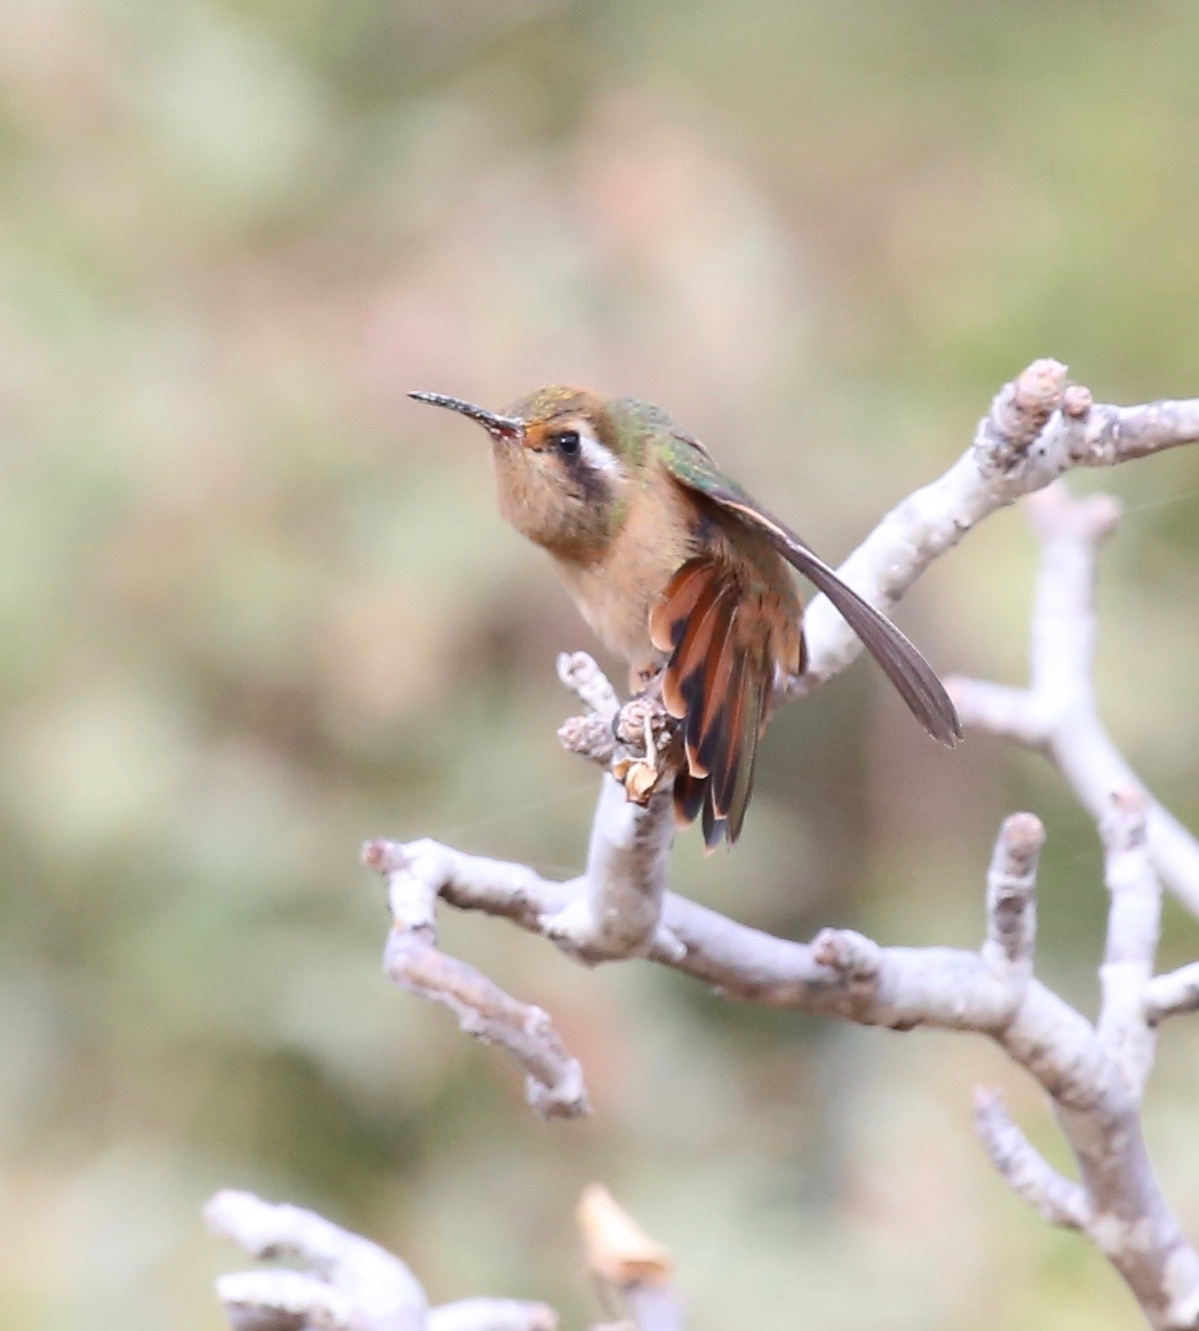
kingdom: Animalia
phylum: Chordata
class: Aves
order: Apodiformes
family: Trochilidae
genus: Basilinna
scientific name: Basilinna xantusii
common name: Xantus's hummingbird
